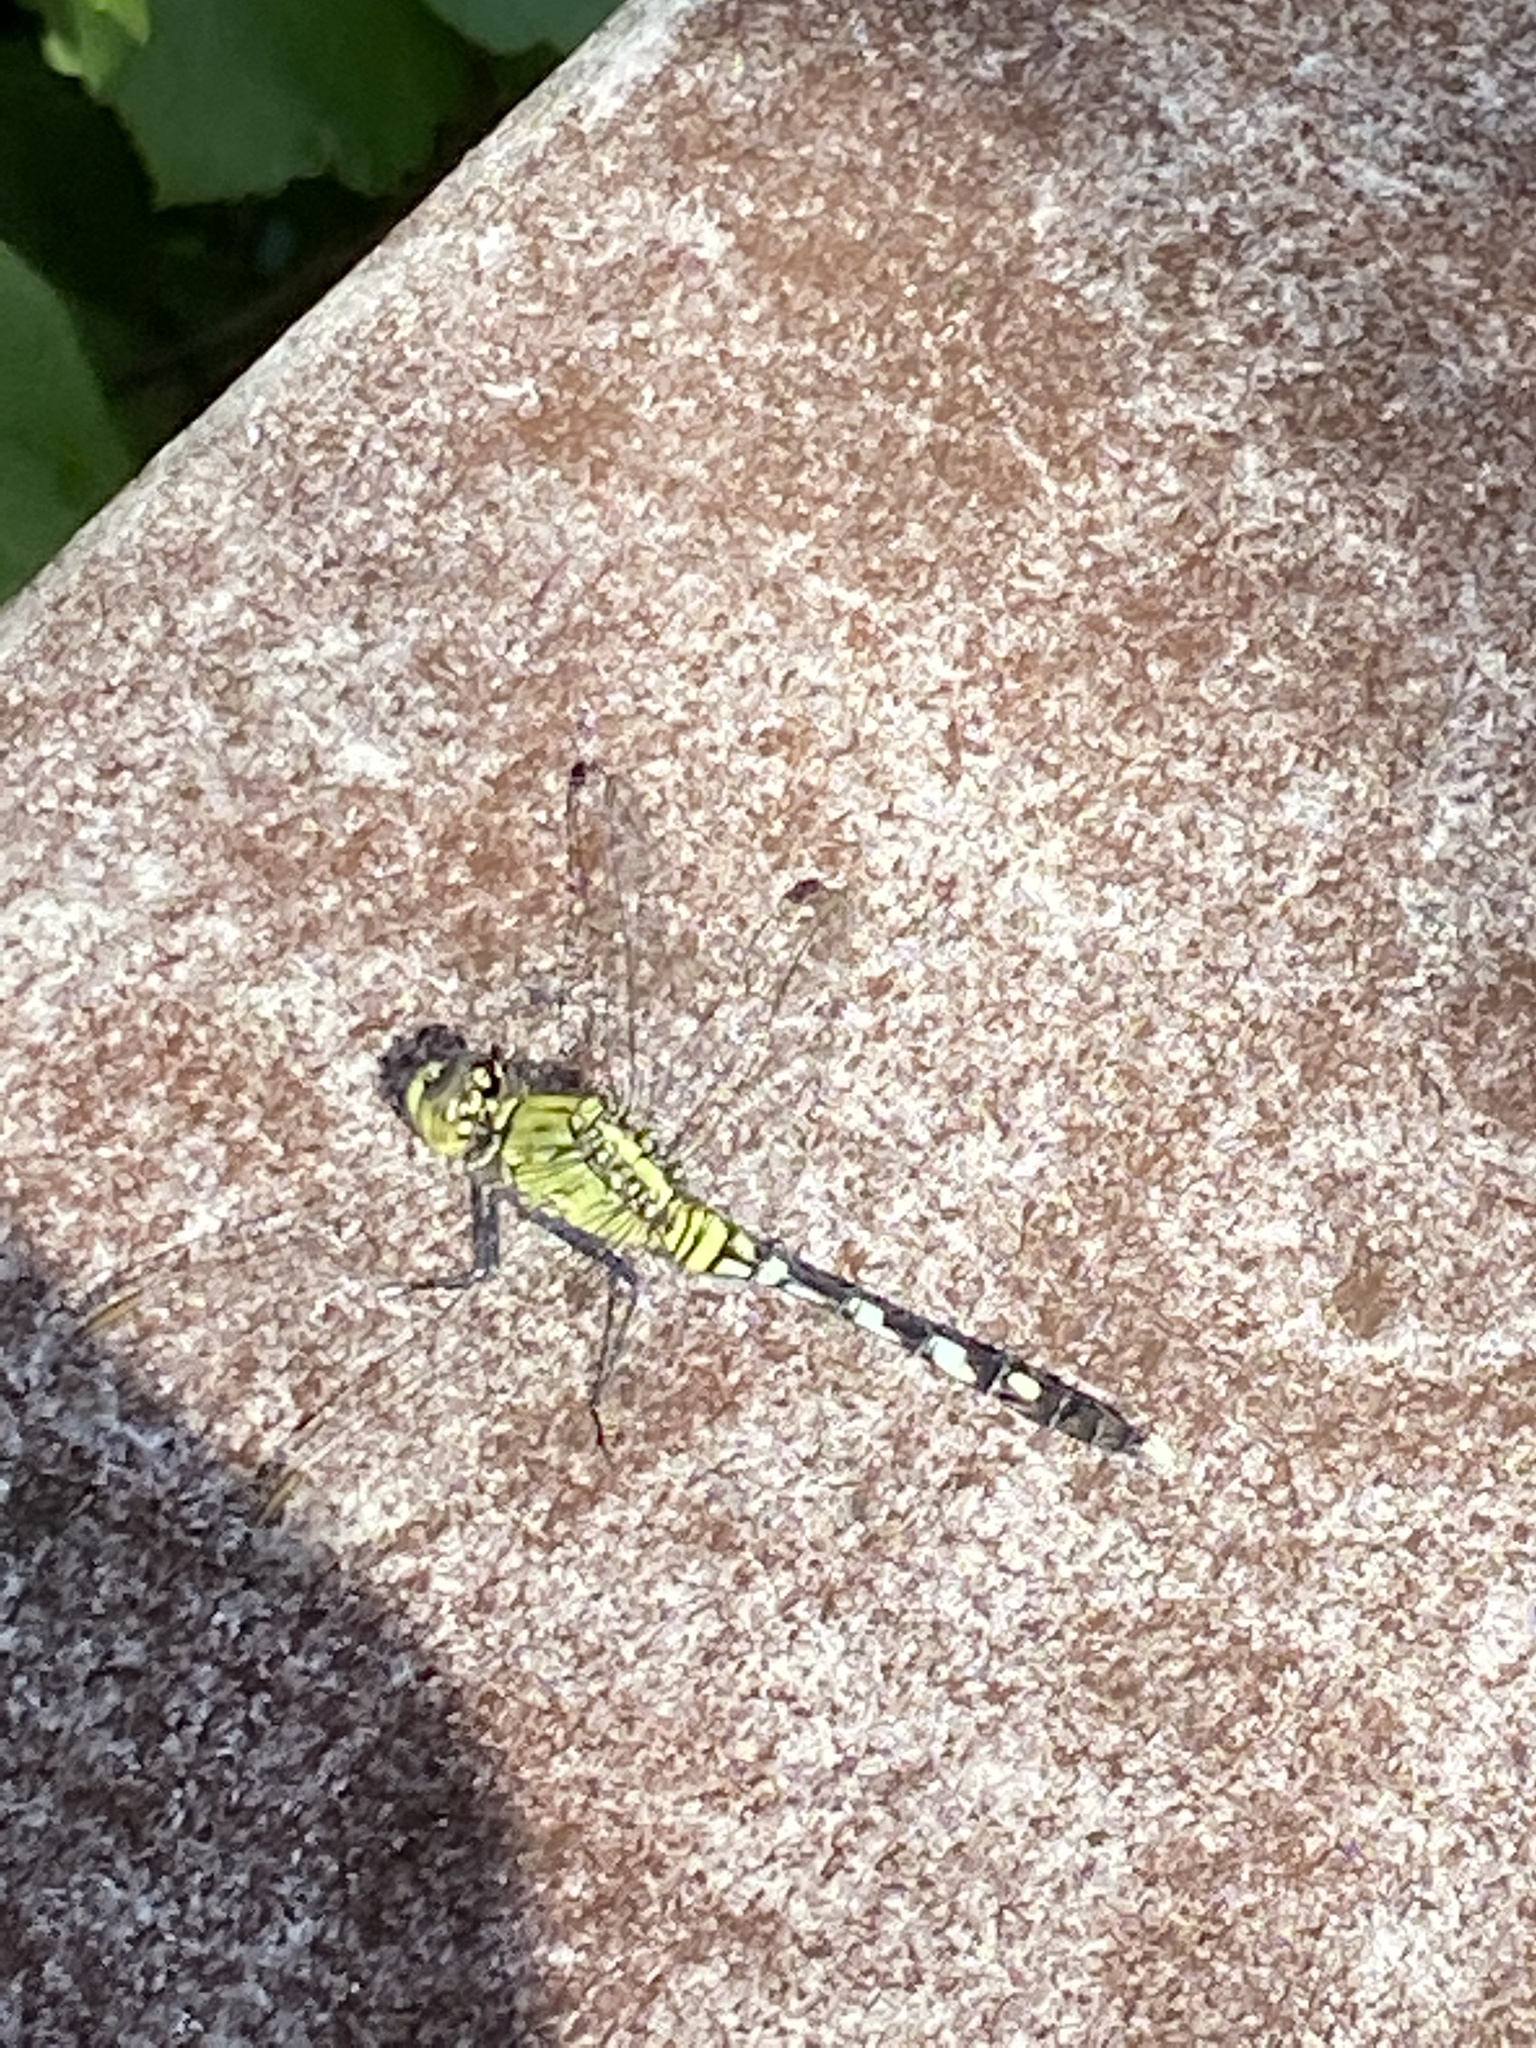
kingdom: Animalia
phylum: Arthropoda
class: Insecta
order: Odonata
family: Libellulidae
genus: Erythemis
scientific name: Erythemis simplicicollis
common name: Eastern pondhawk
